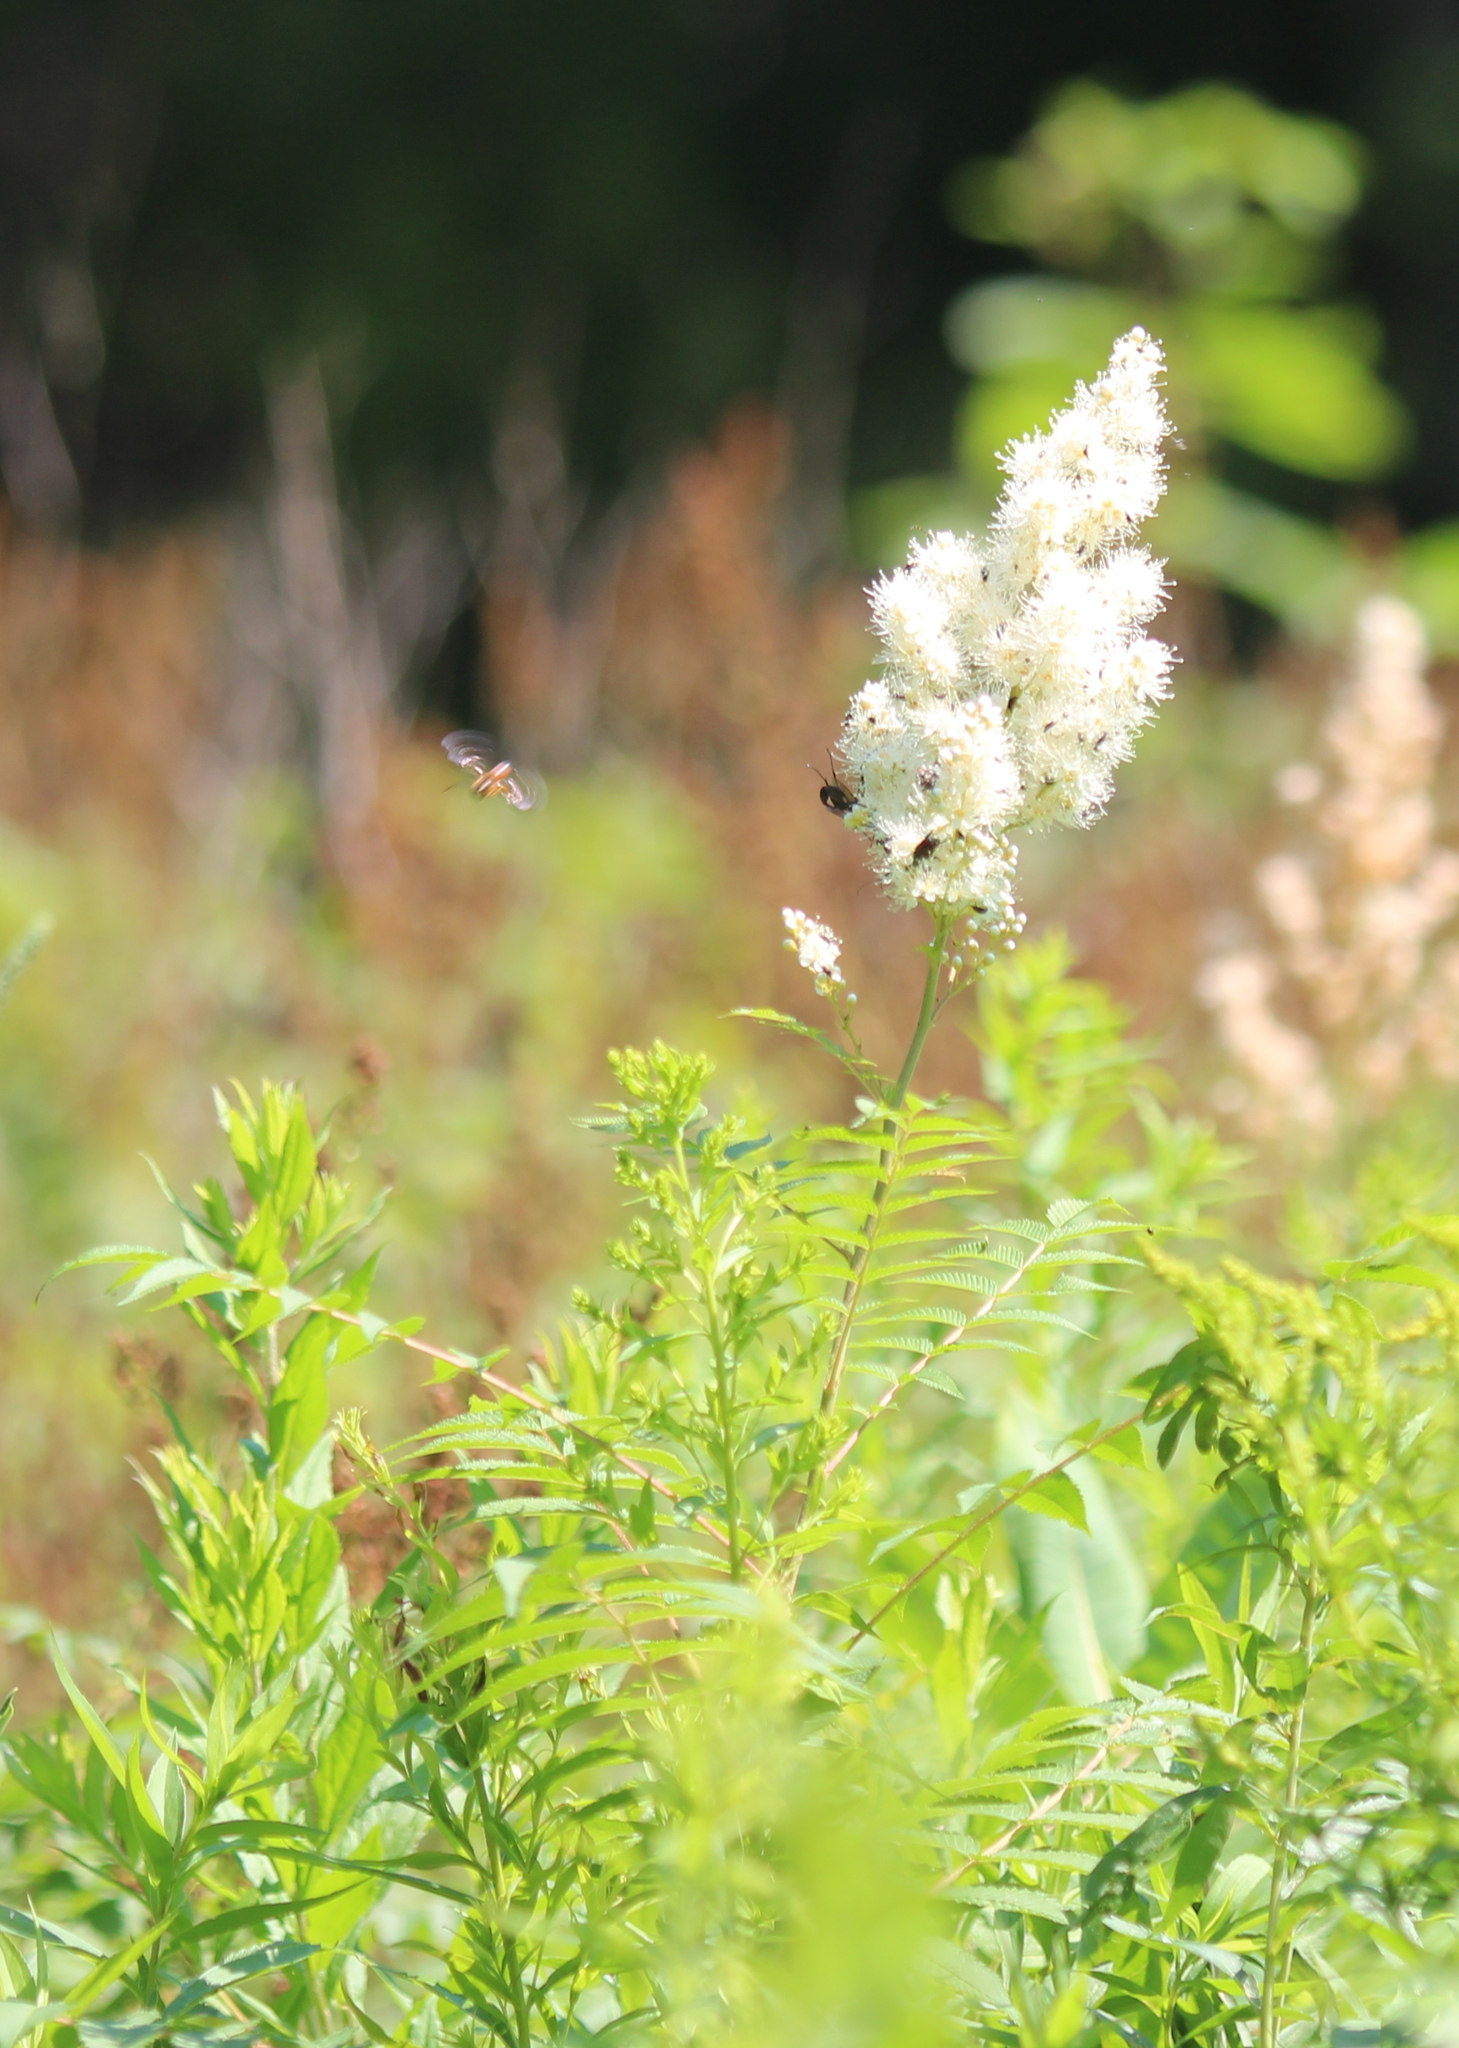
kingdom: Plantae
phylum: Tracheophyta
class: Magnoliopsida
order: Rosales
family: Rosaceae
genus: Sorbaria
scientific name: Sorbaria sorbifolia
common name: False spiraea
